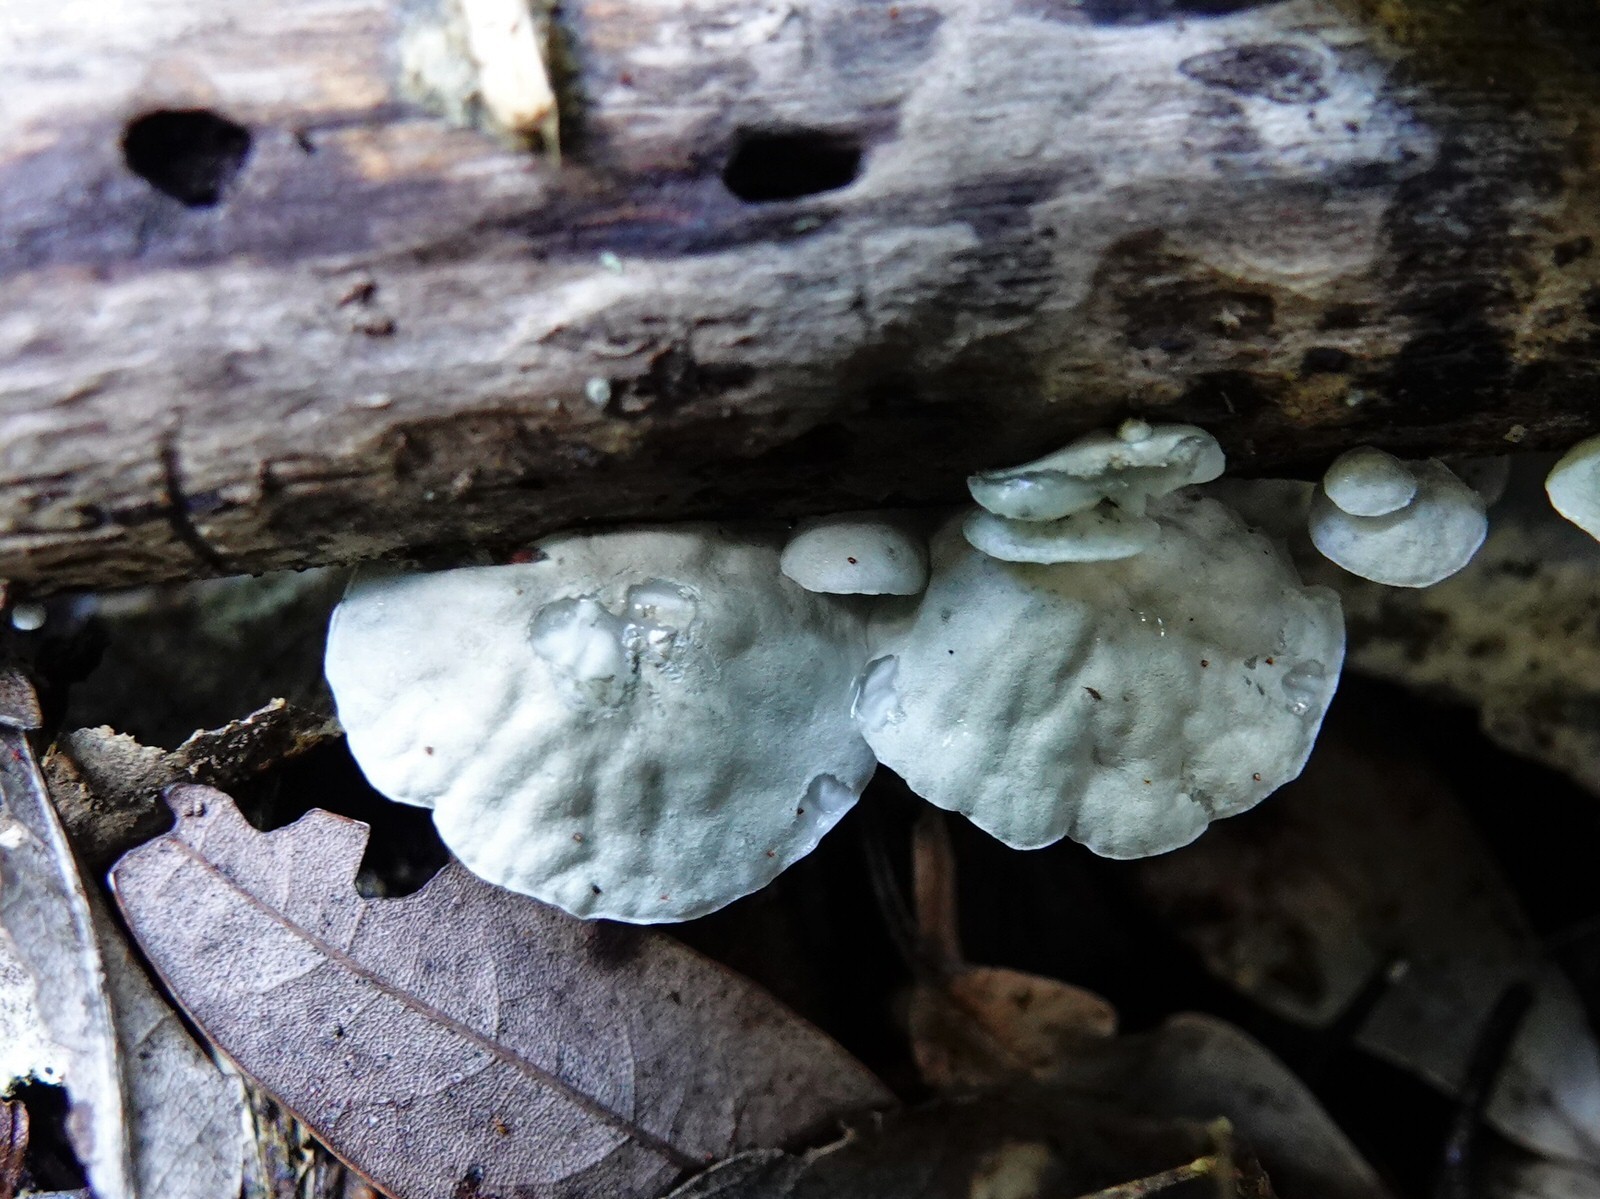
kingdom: Fungi
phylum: Basidiomycota
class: Agaricomycetes
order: Agaricales
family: Marasmiaceae
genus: Campanella
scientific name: Campanella tristis
